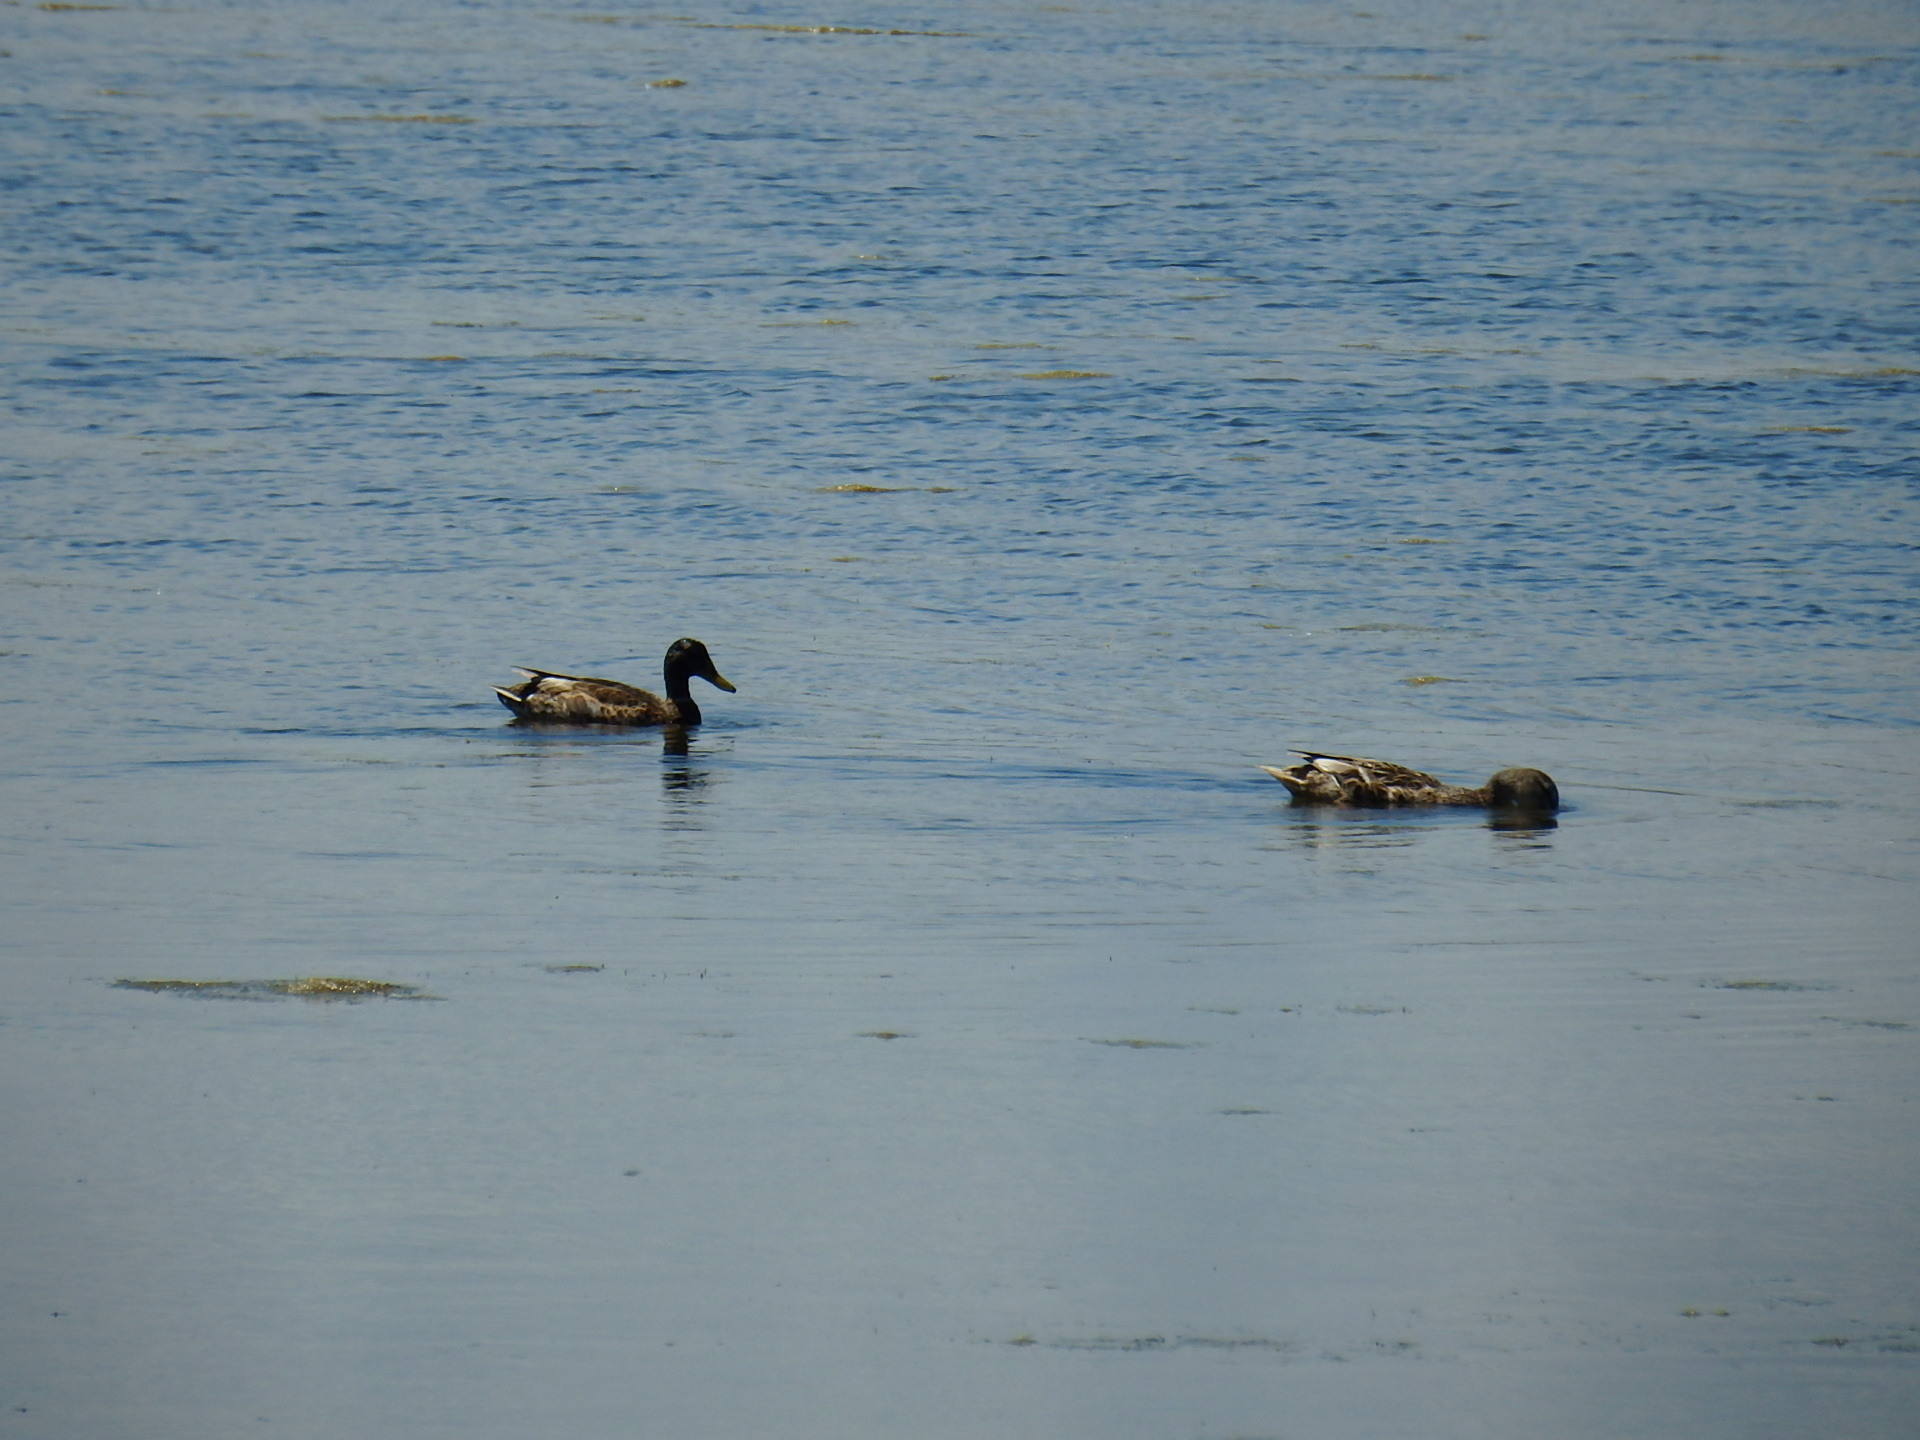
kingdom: Animalia
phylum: Chordata
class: Aves
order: Anseriformes
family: Anatidae
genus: Anas
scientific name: Anas platyrhynchos
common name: Mallard
